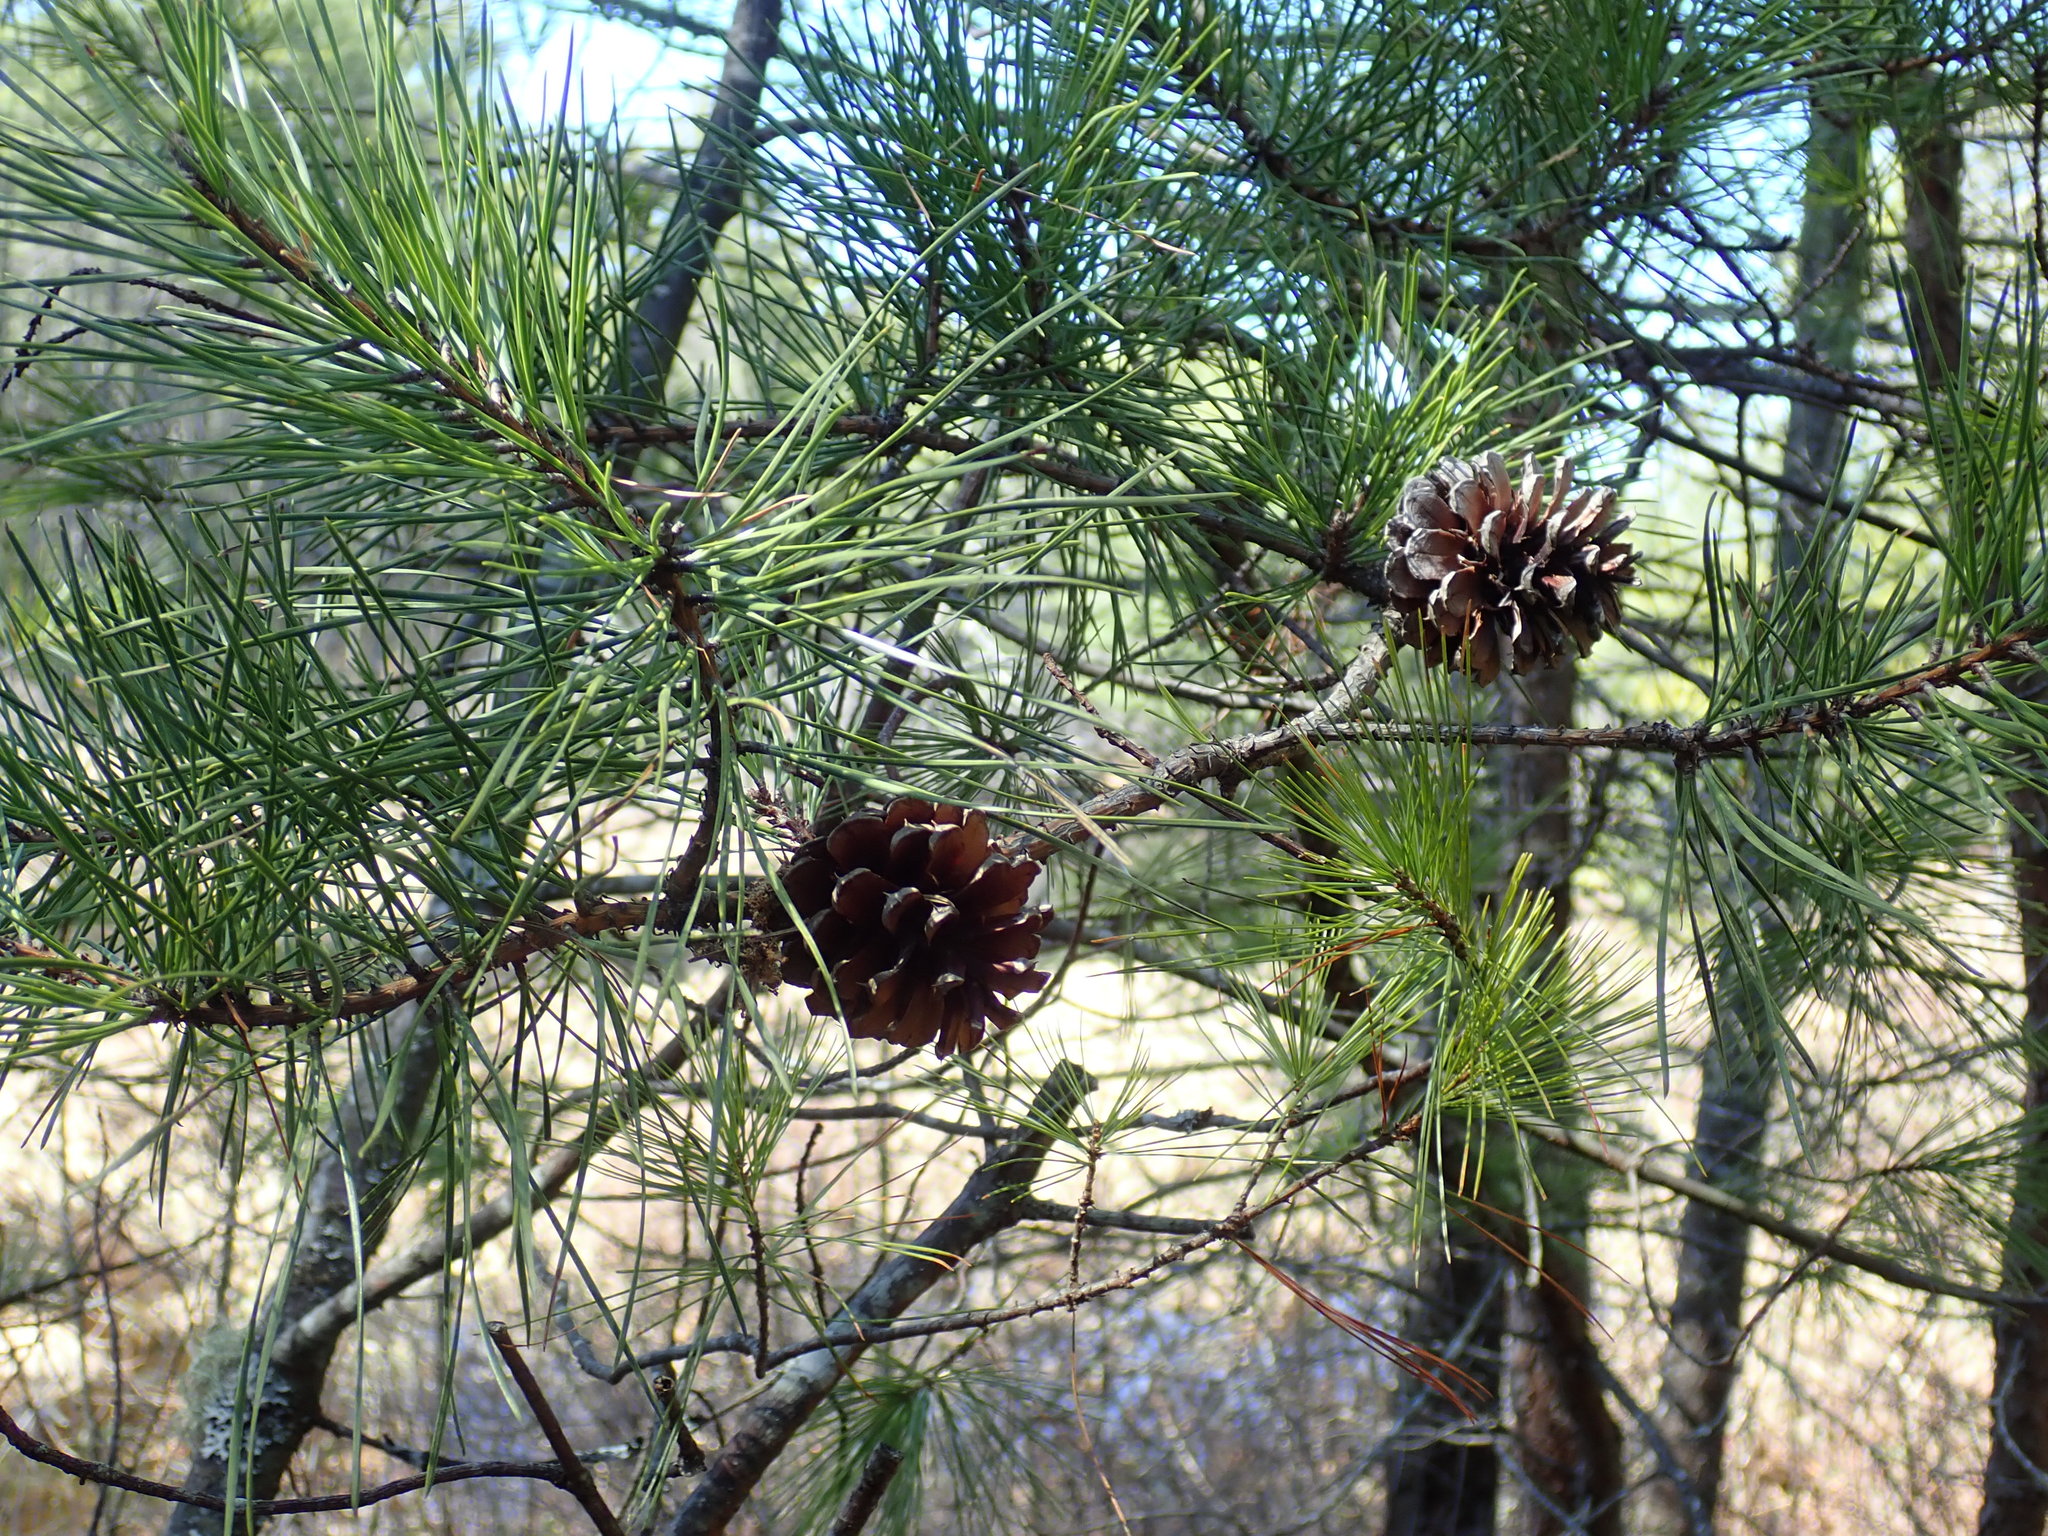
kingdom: Plantae
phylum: Tracheophyta
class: Pinopsida
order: Pinales
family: Pinaceae
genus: Pinus
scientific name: Pinus rigida
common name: Pitch pine
